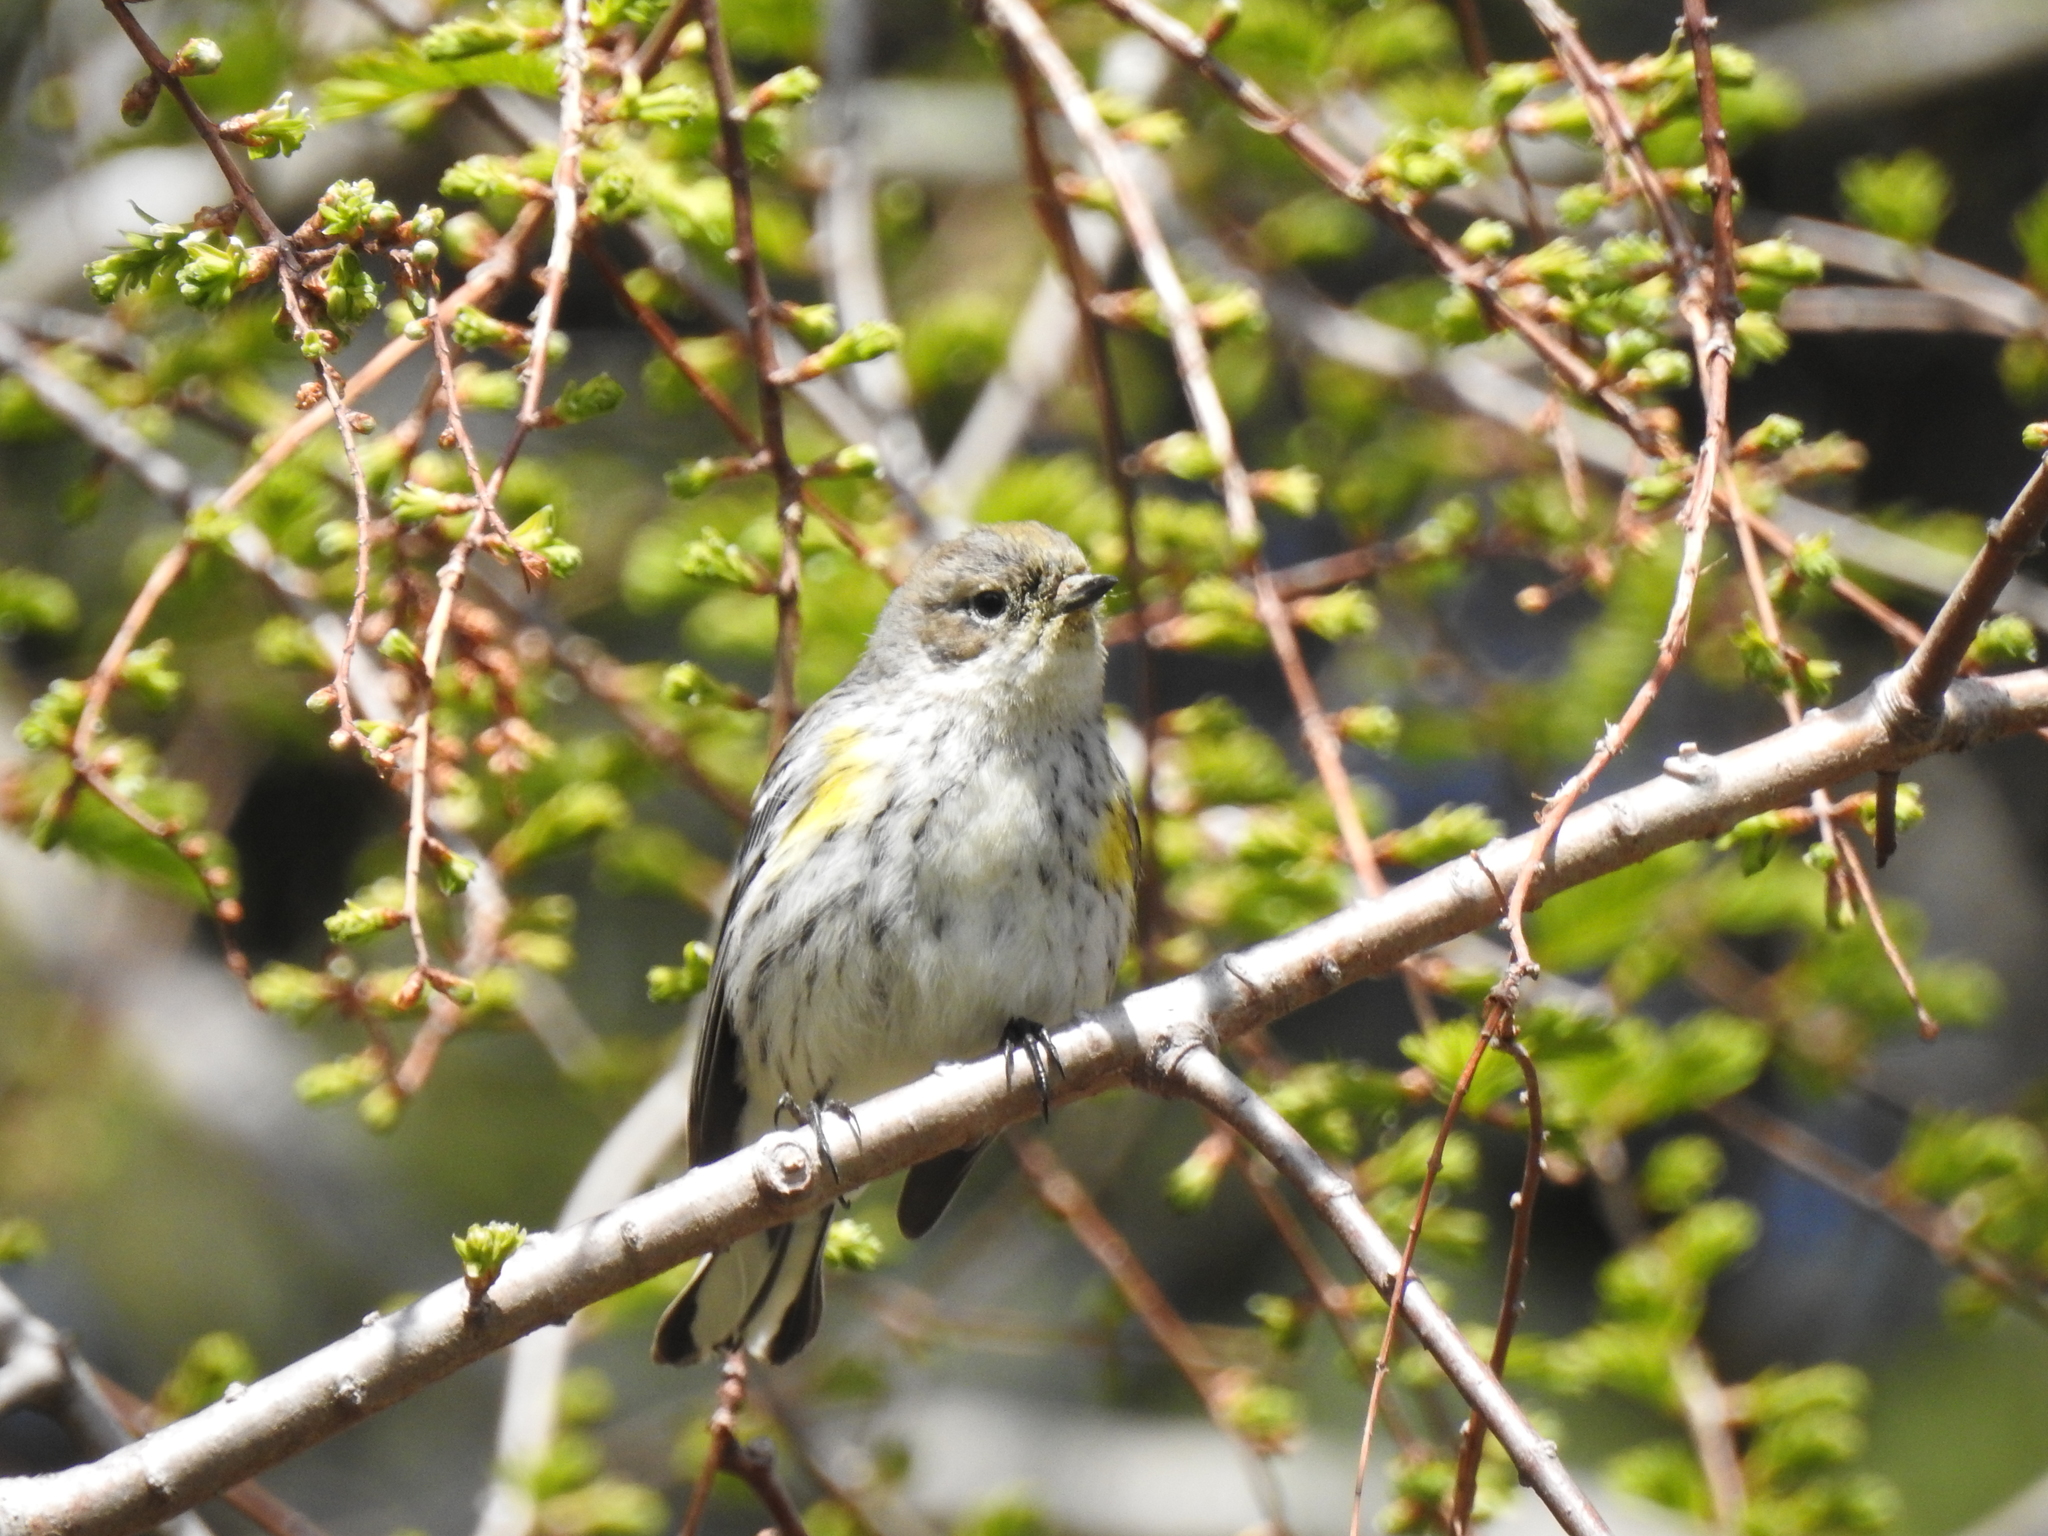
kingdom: Animalia
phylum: Chordata
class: Aves
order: Passeriformes
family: Parulidae
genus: Setophaga
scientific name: Setophaga coronata
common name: Myrtle warbler
